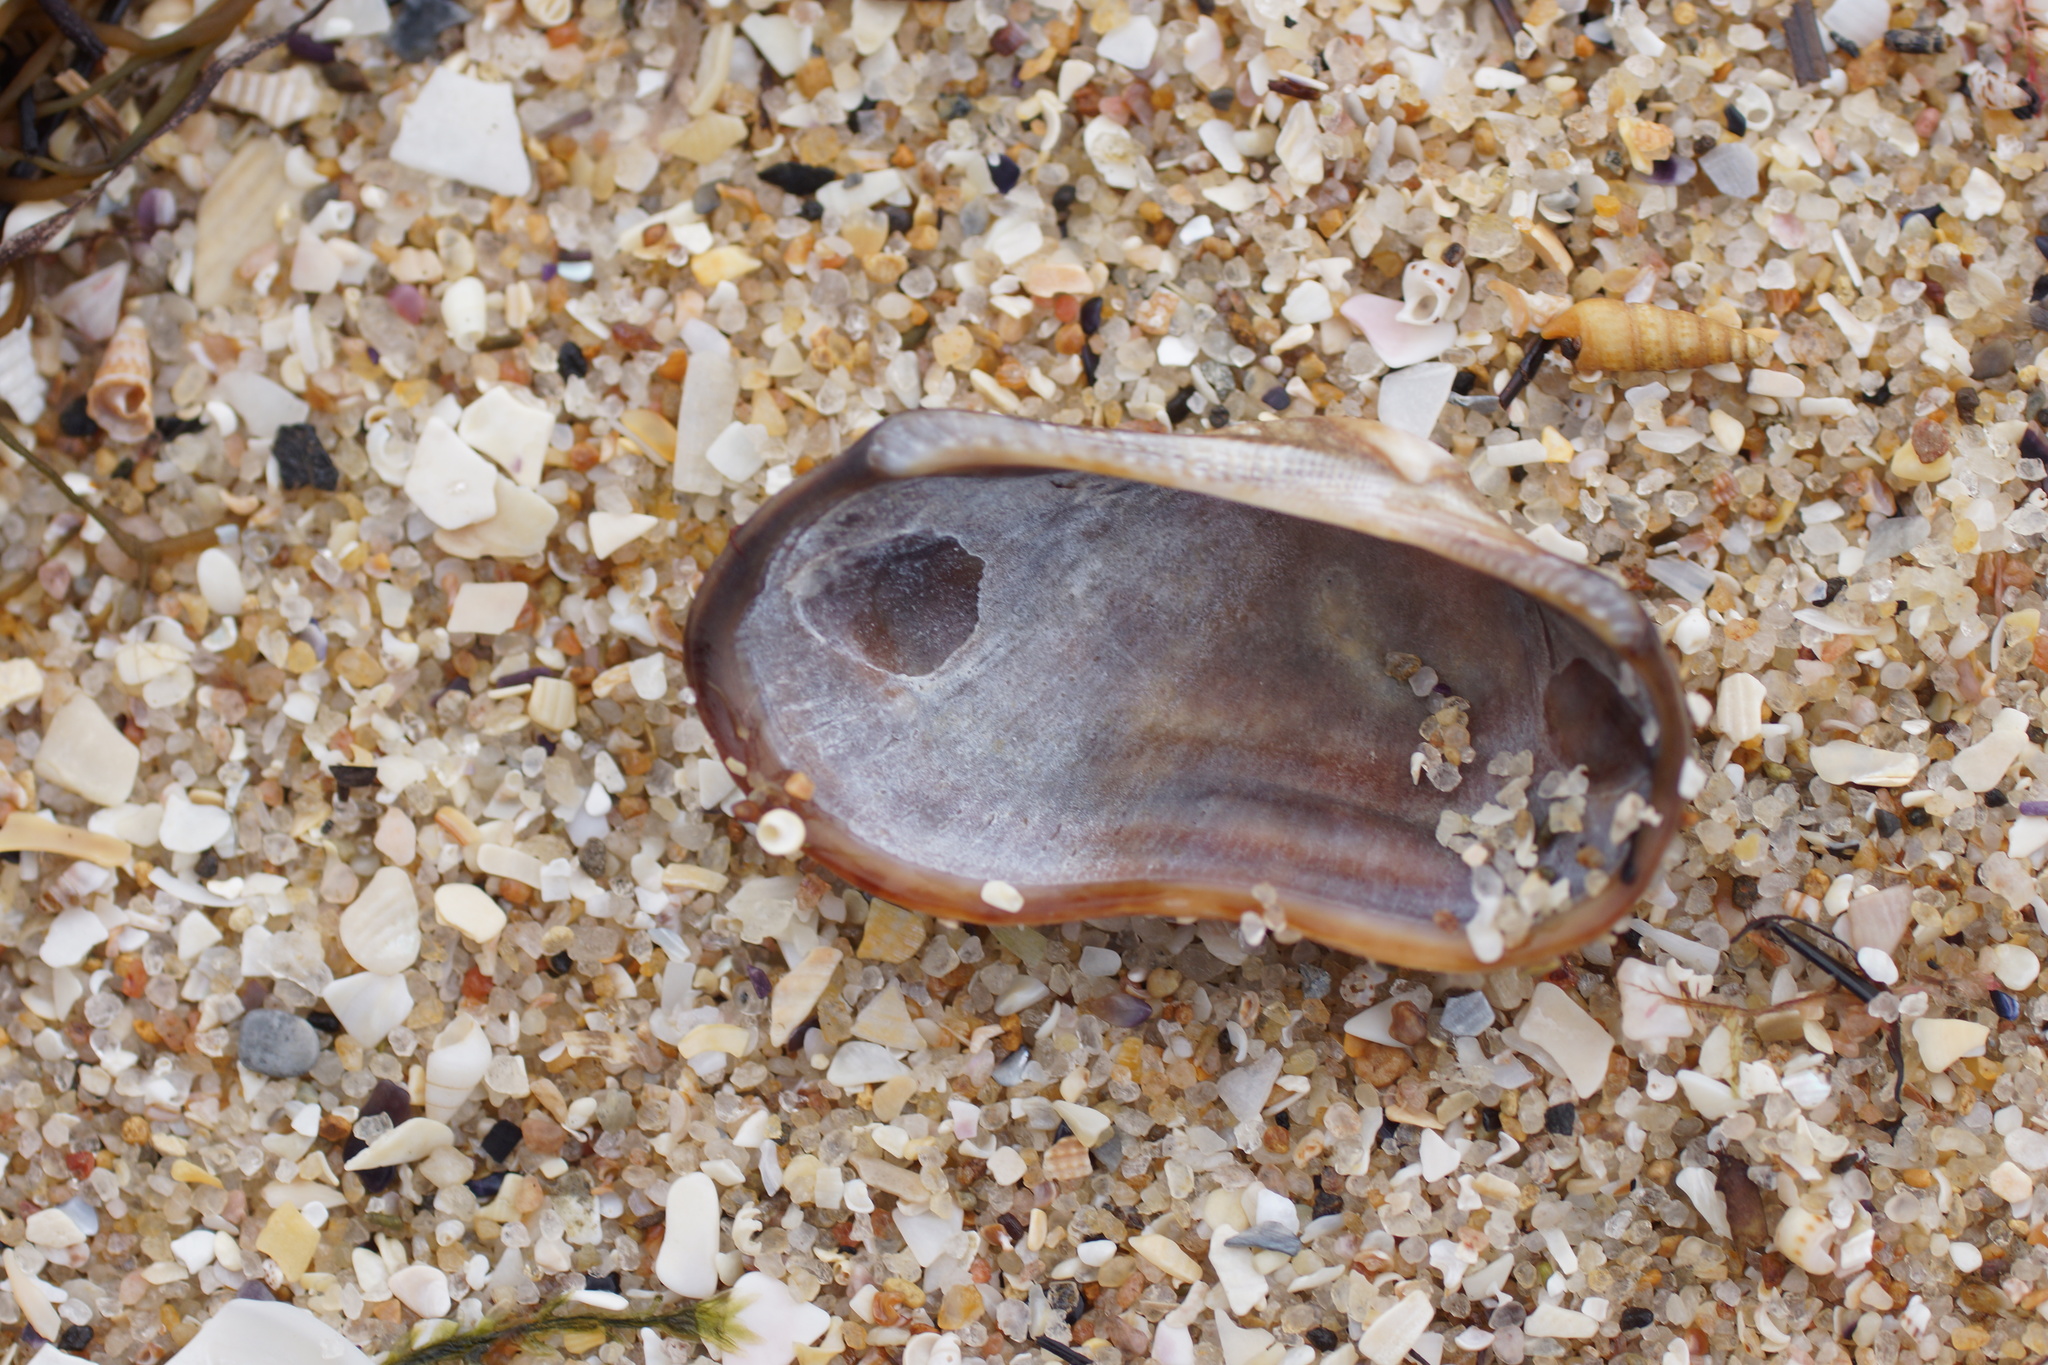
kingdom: Animalia
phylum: Mollusca
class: Bivalvia
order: Arcida
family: Arcidae
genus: Barbatia
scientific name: Barbatia pistachia
